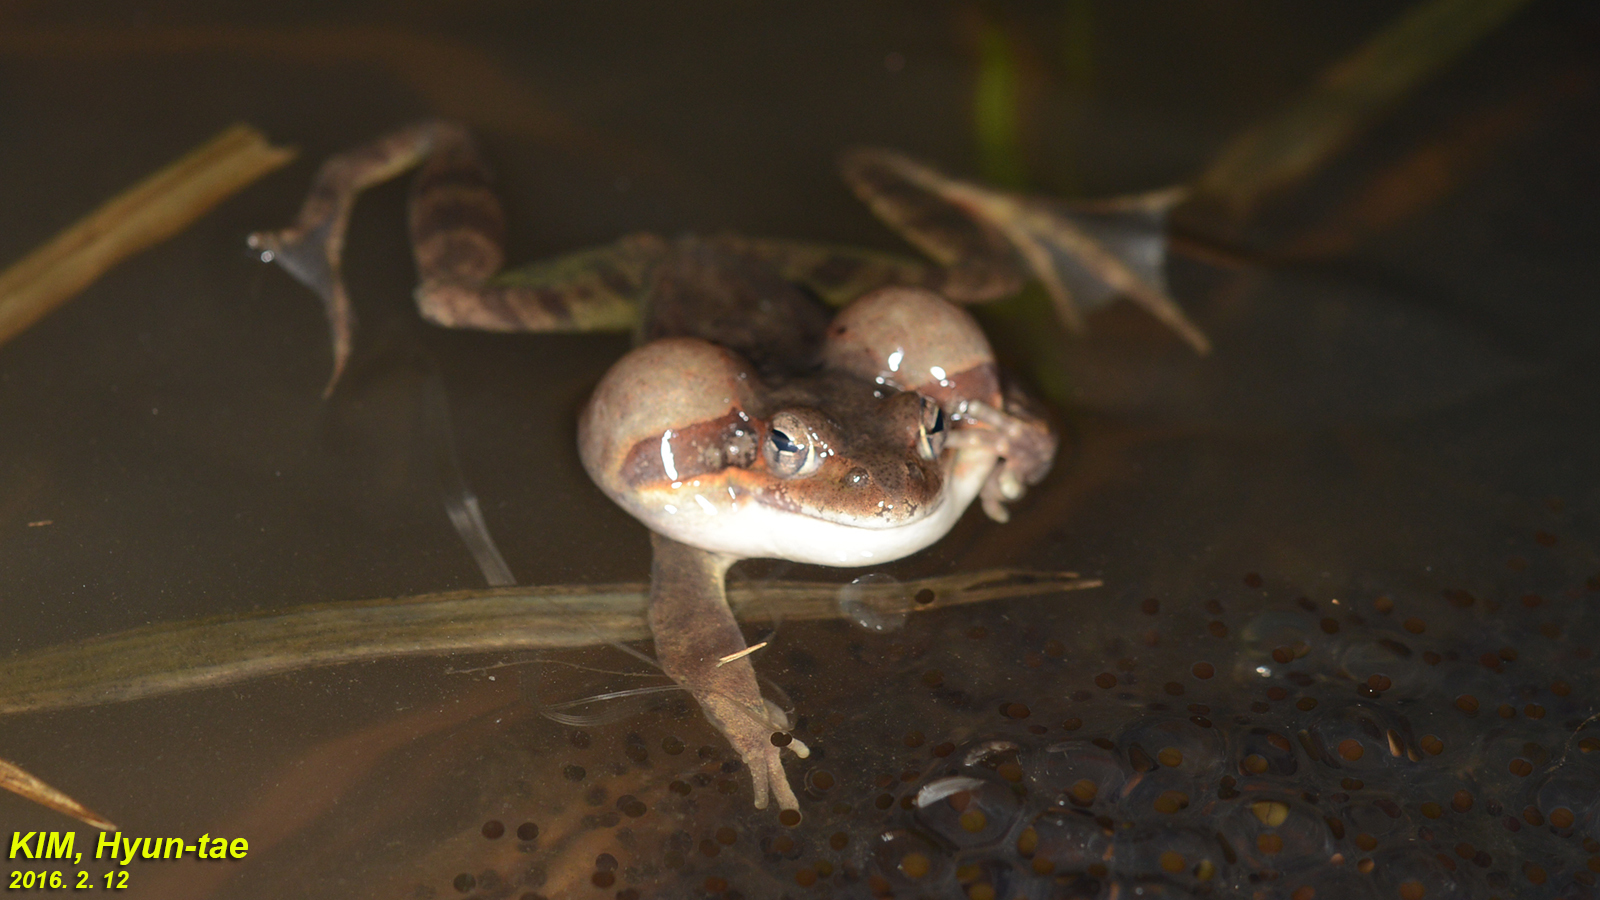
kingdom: Animalia
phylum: Chordata
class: Amphibia
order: Anura
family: Ranidae
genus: Rana
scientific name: Rana uenoi
